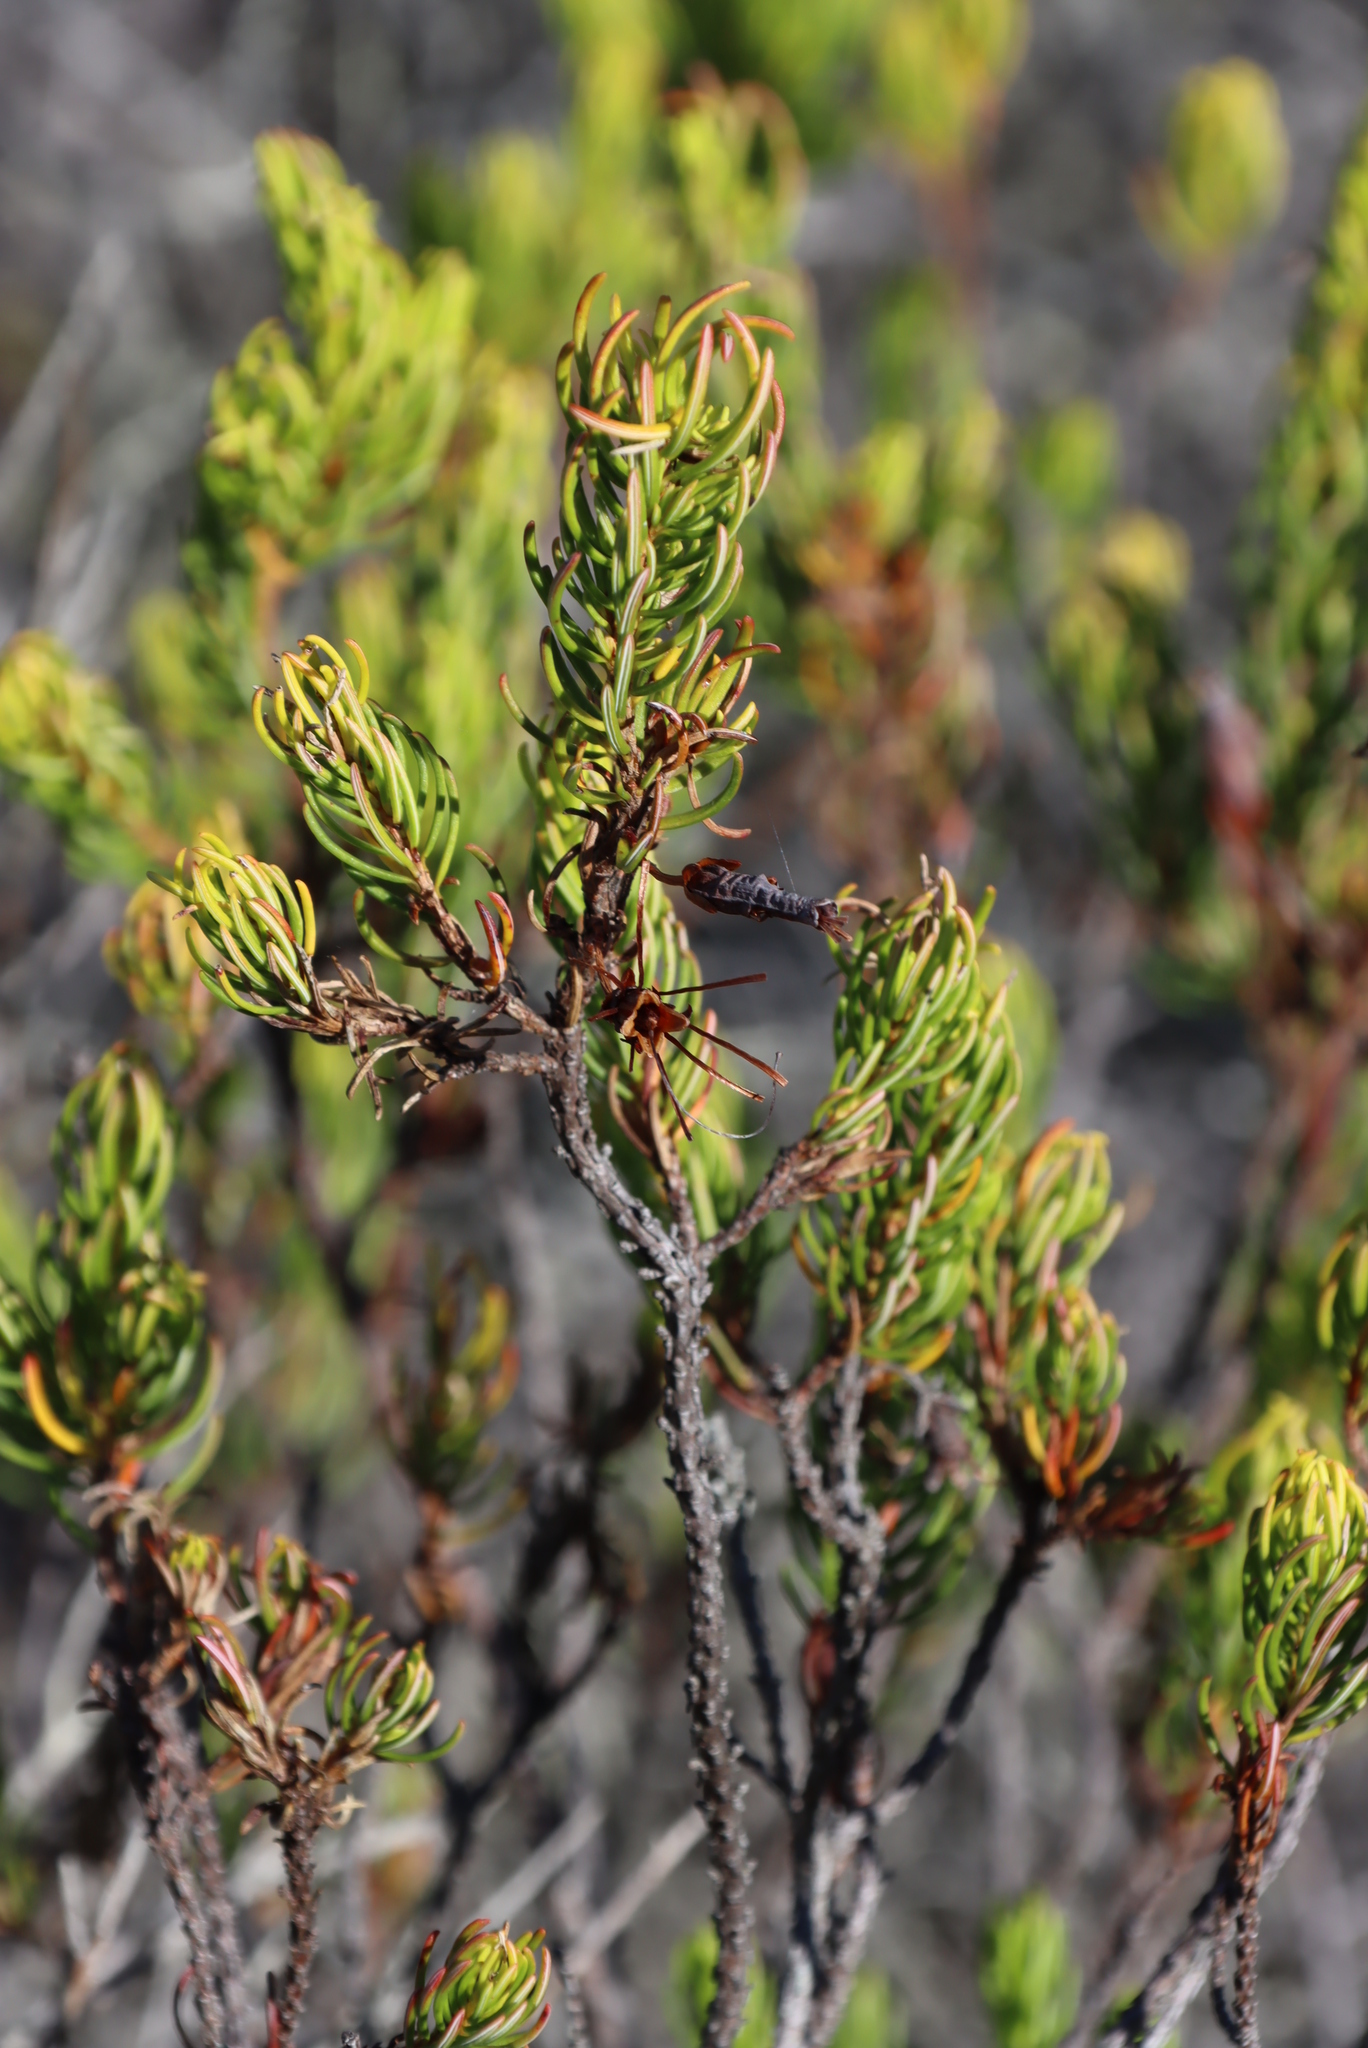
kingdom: Plantae
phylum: Tracheophyta
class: Magnoliopsida
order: Ericales
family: Ericaceae
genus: Erica
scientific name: Erica plukenetii
